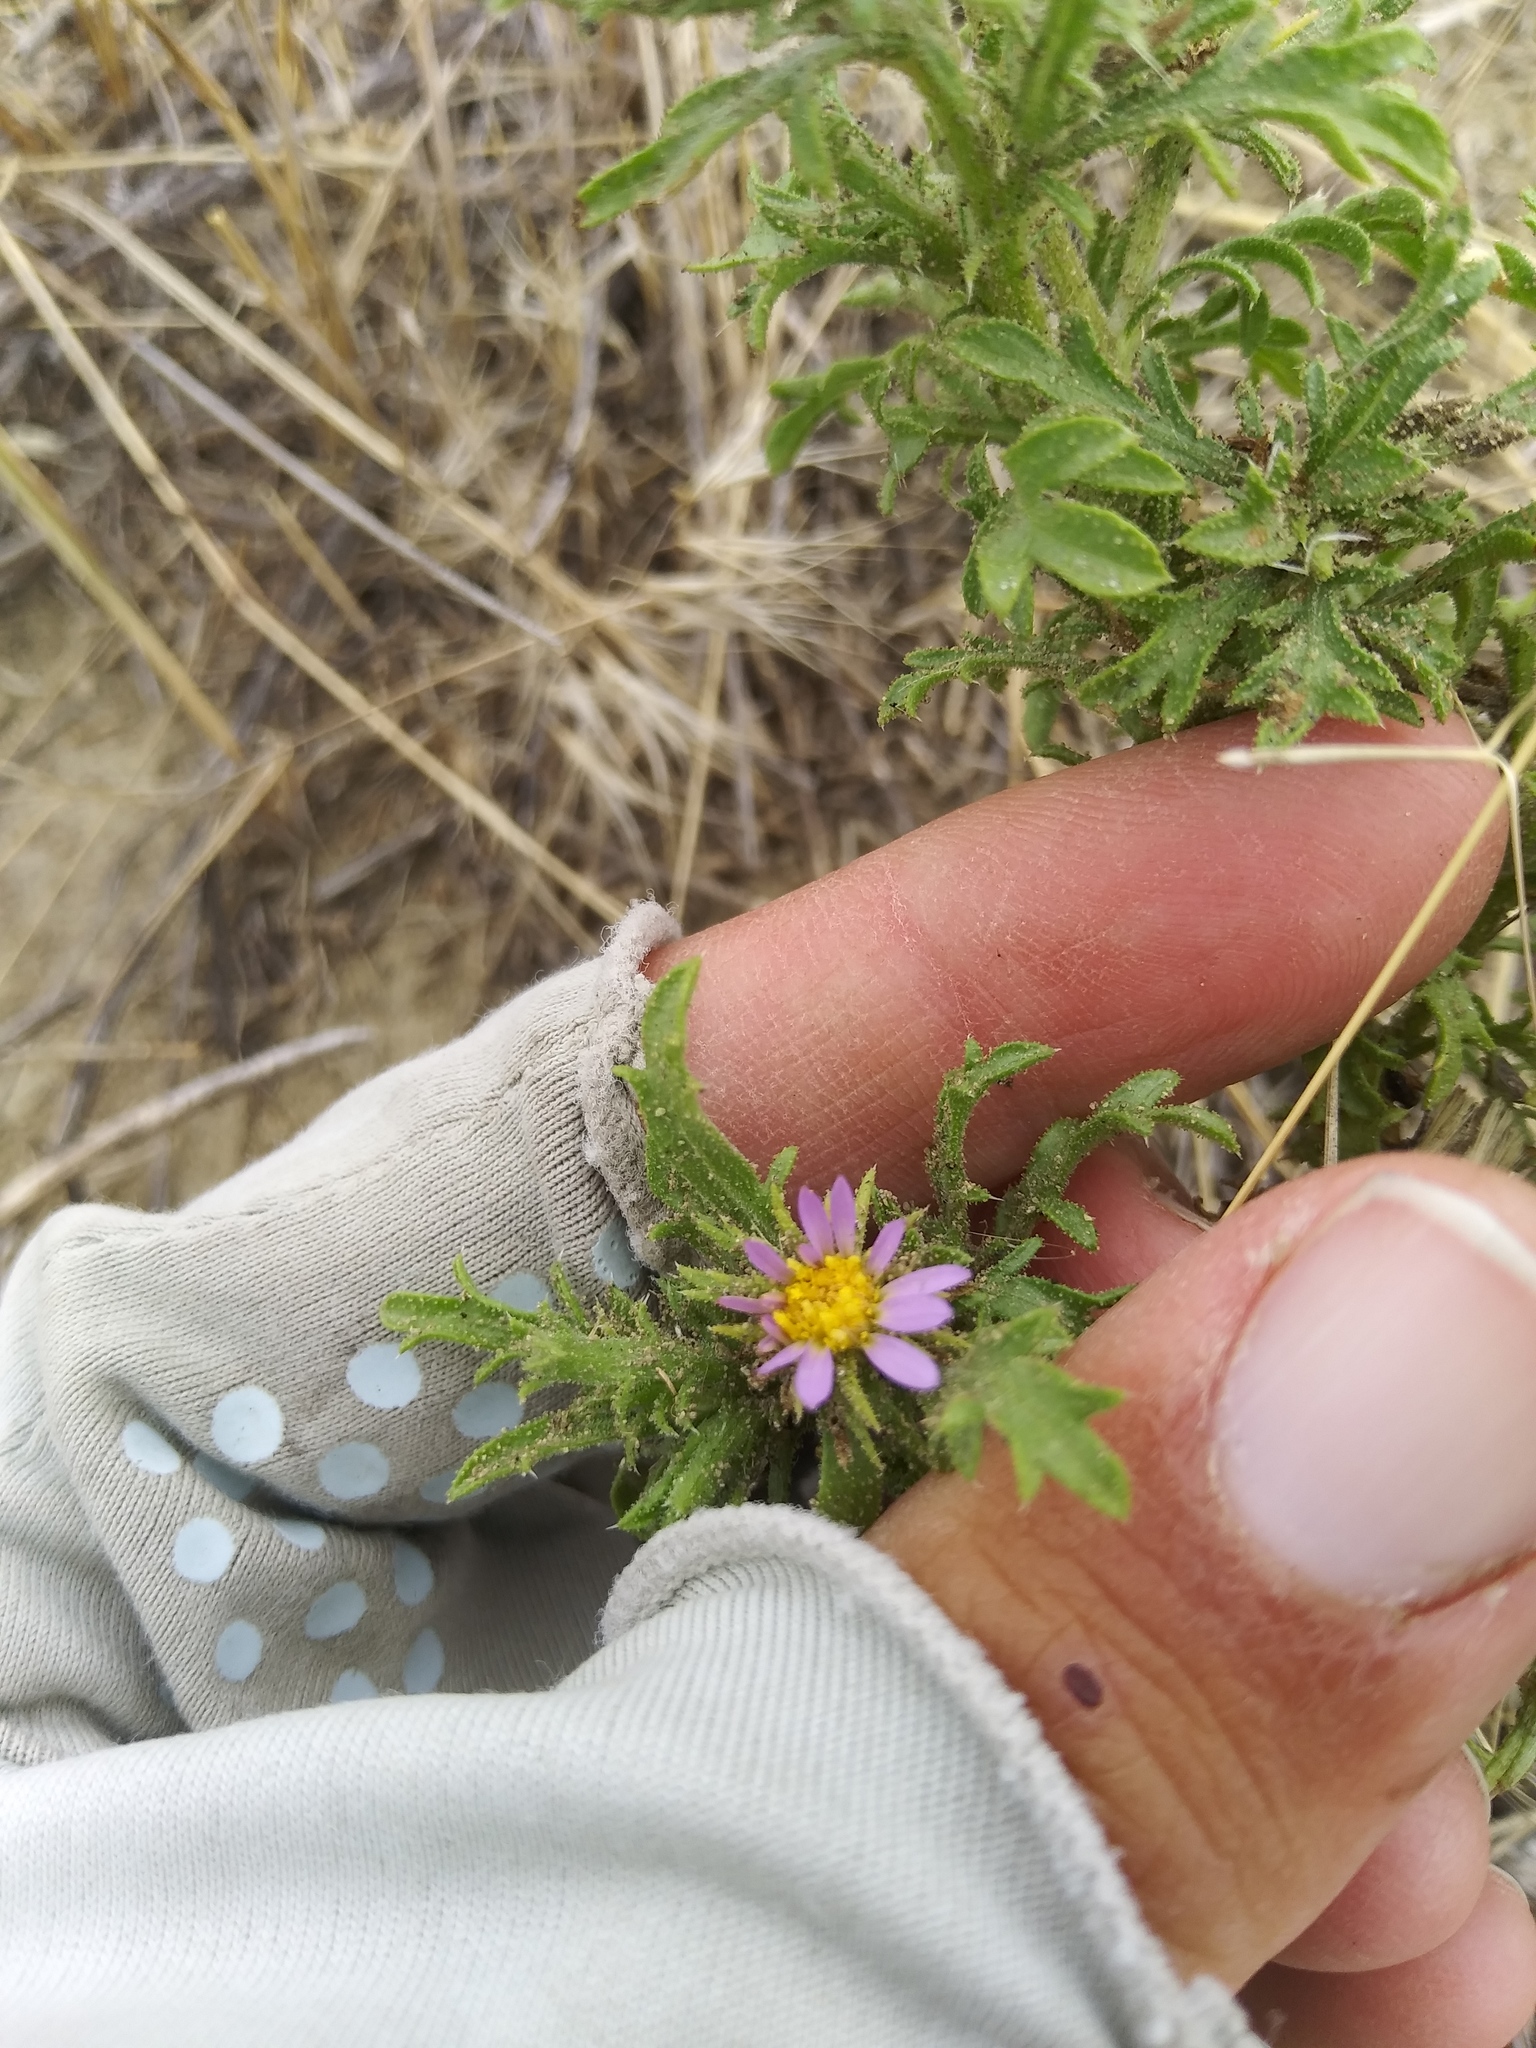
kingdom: Plantae
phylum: Tracheophyta
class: Magnoliopsida
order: Asterales
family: Asteraceae
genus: Machaeranthera
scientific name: Machaeranthera tanacetifolia
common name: Tansy-aster
